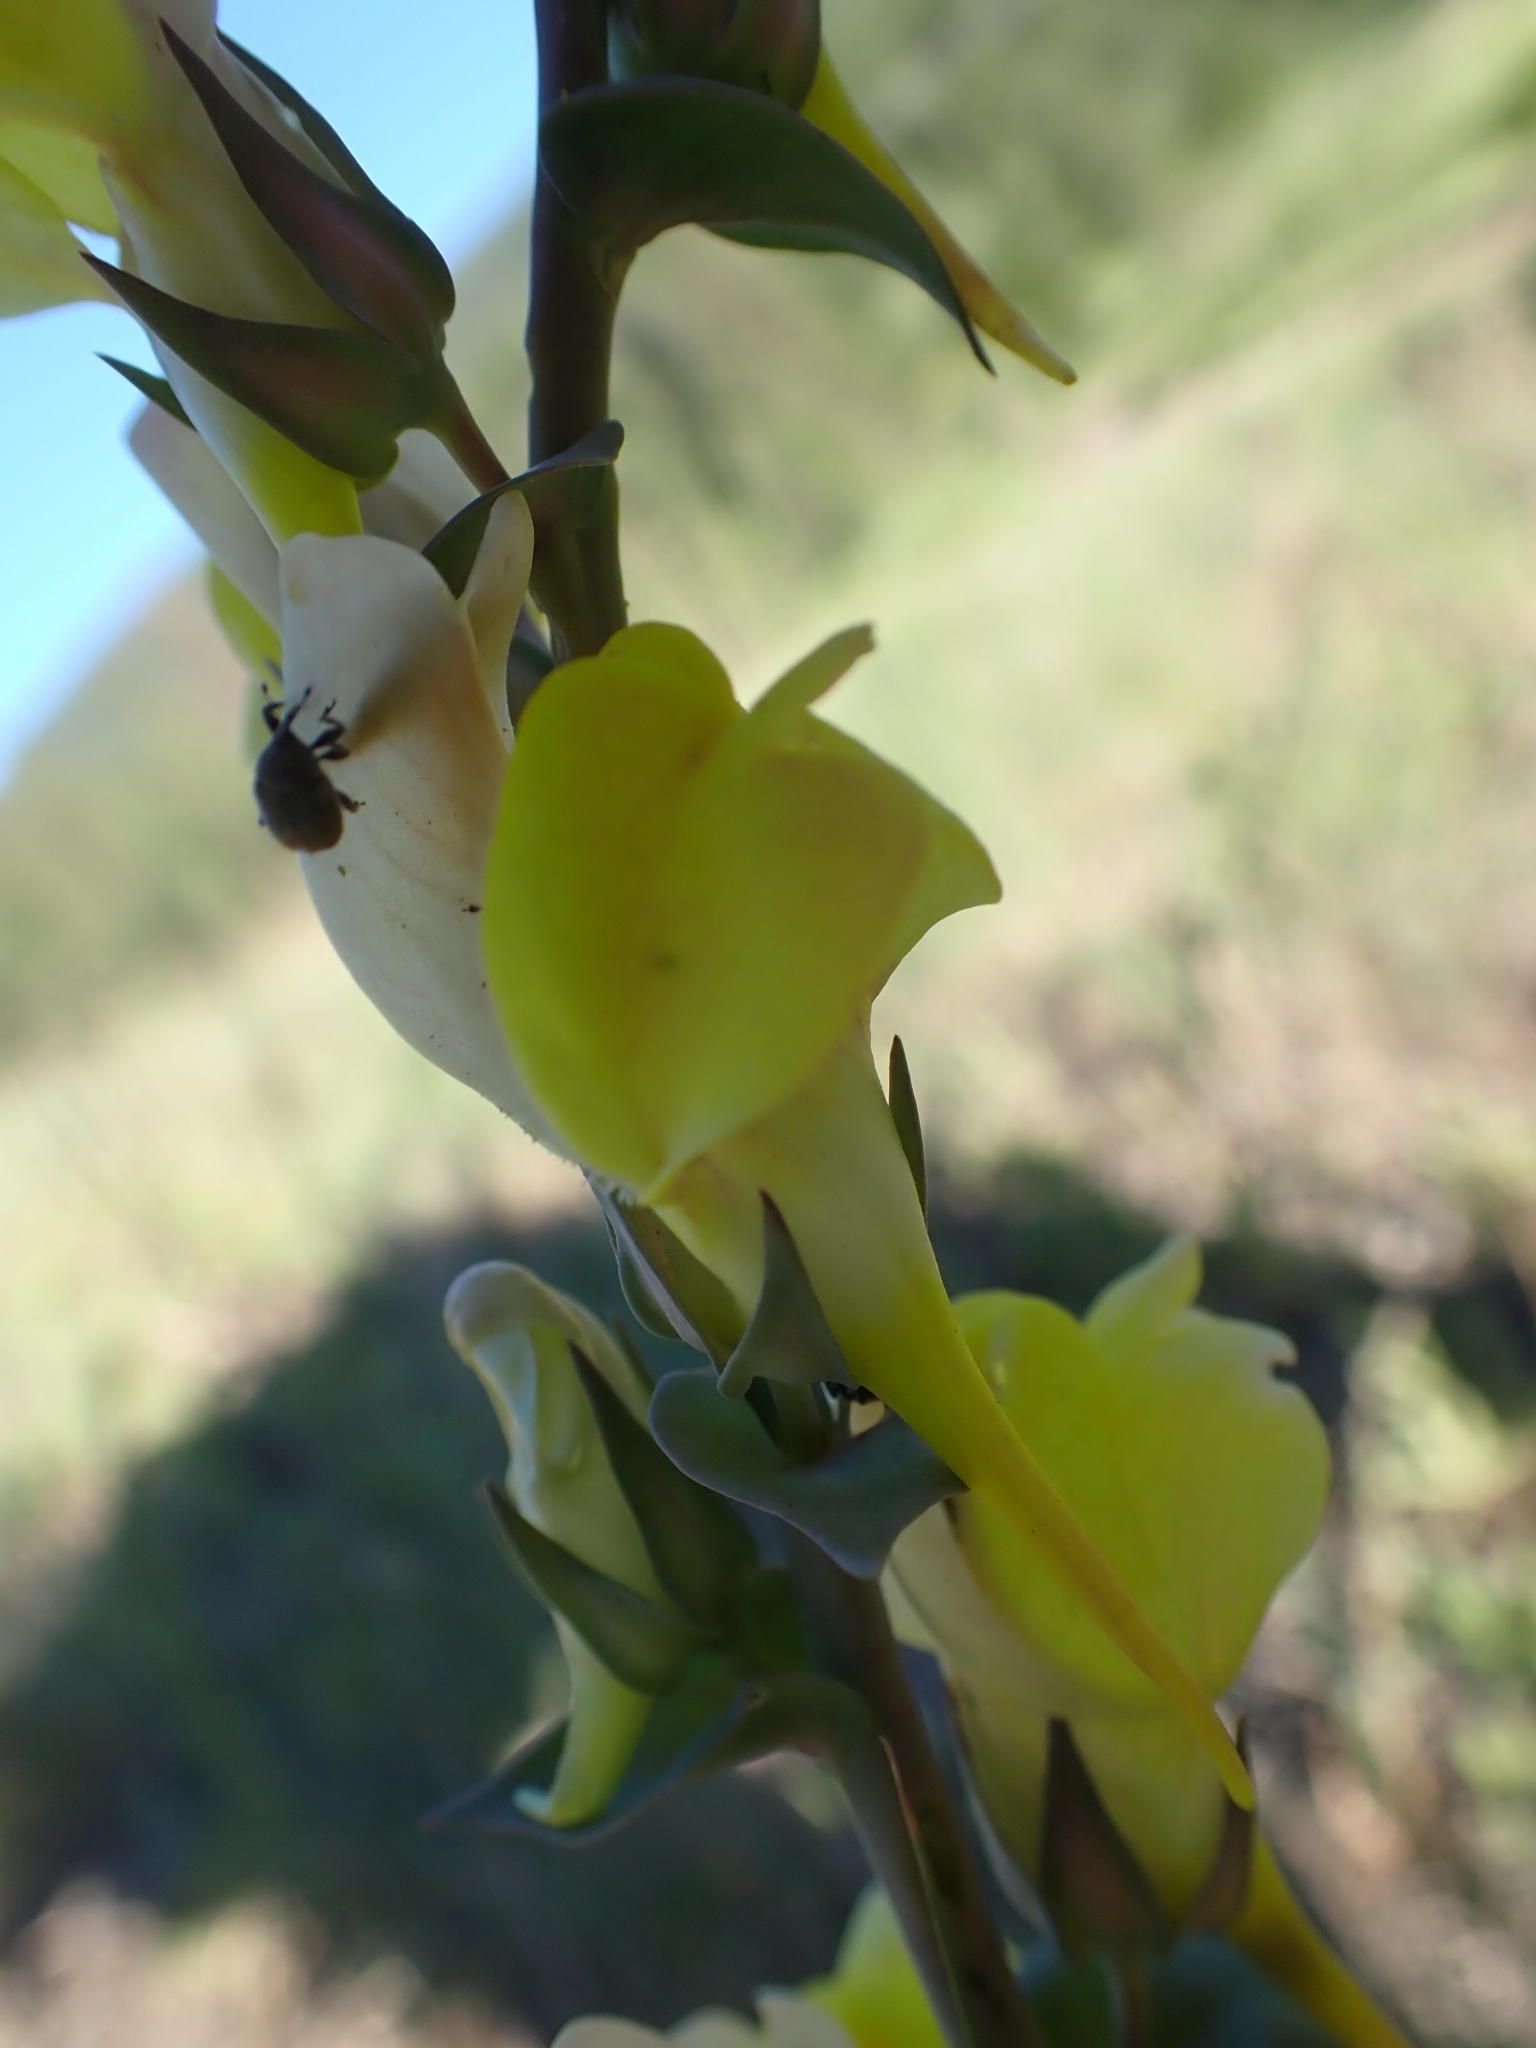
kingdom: Plantae
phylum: Tracheophyta
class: Magnoliopsida
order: Lamiales
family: Plantaginaceae
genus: Linaria
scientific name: Linaria dalmatica
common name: Dalmatian toadflax
